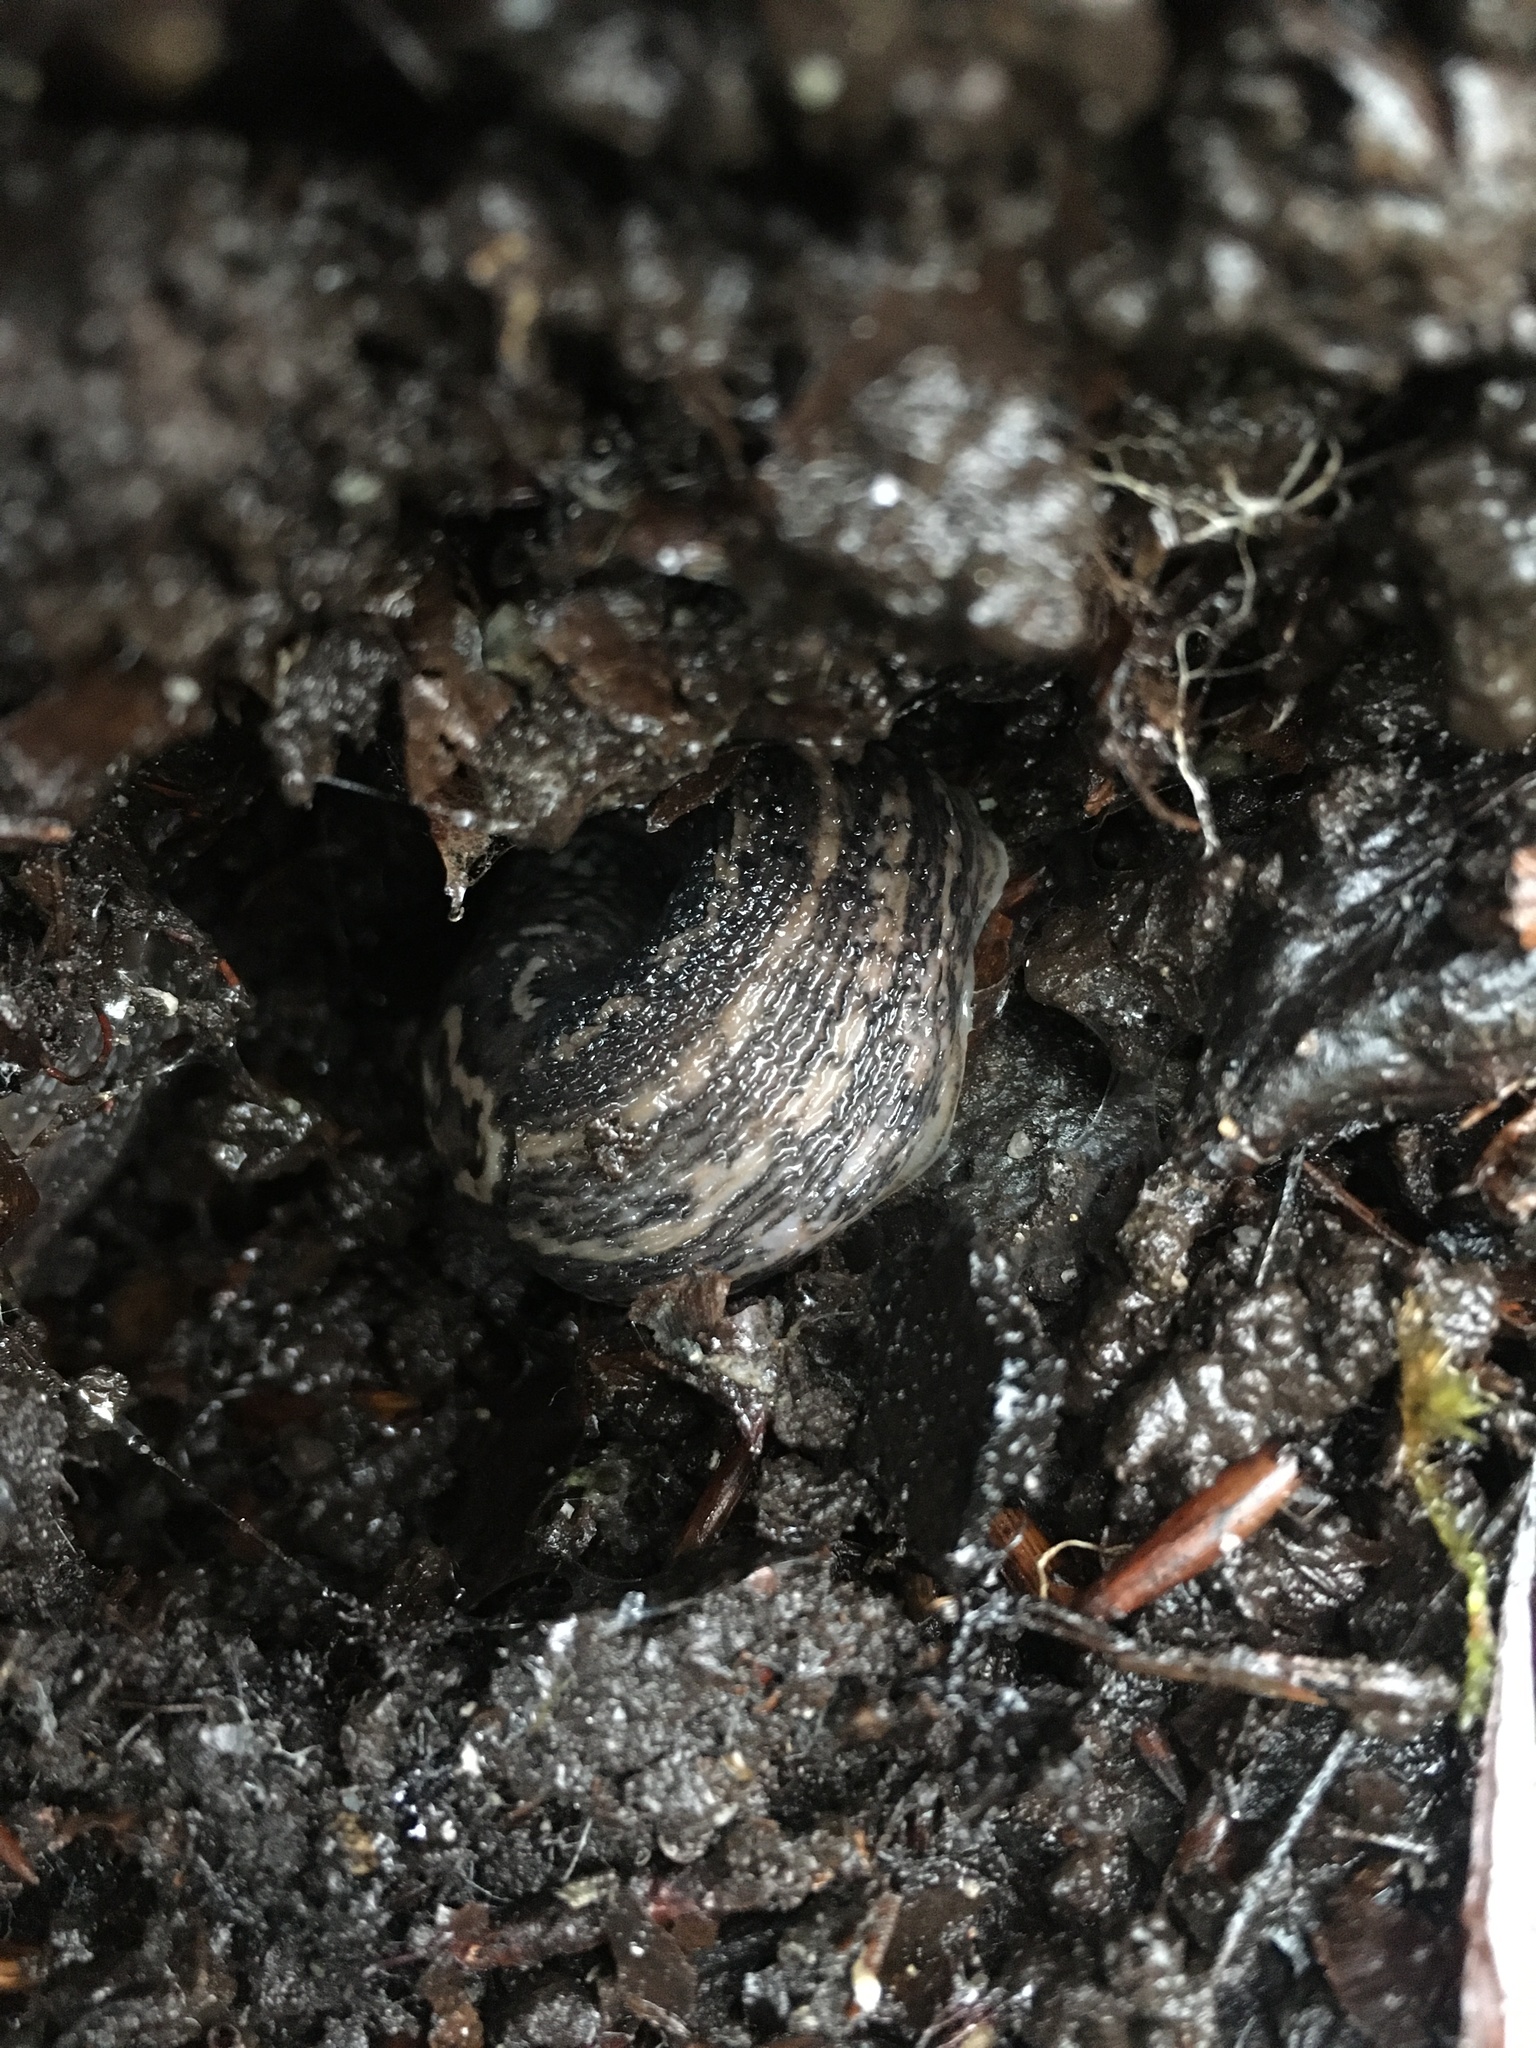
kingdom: Animalia
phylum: Mollusca
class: Gastropoda
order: Stylommatophora
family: Limacidae
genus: Limax
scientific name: Limax maximus
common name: Great grey slug
